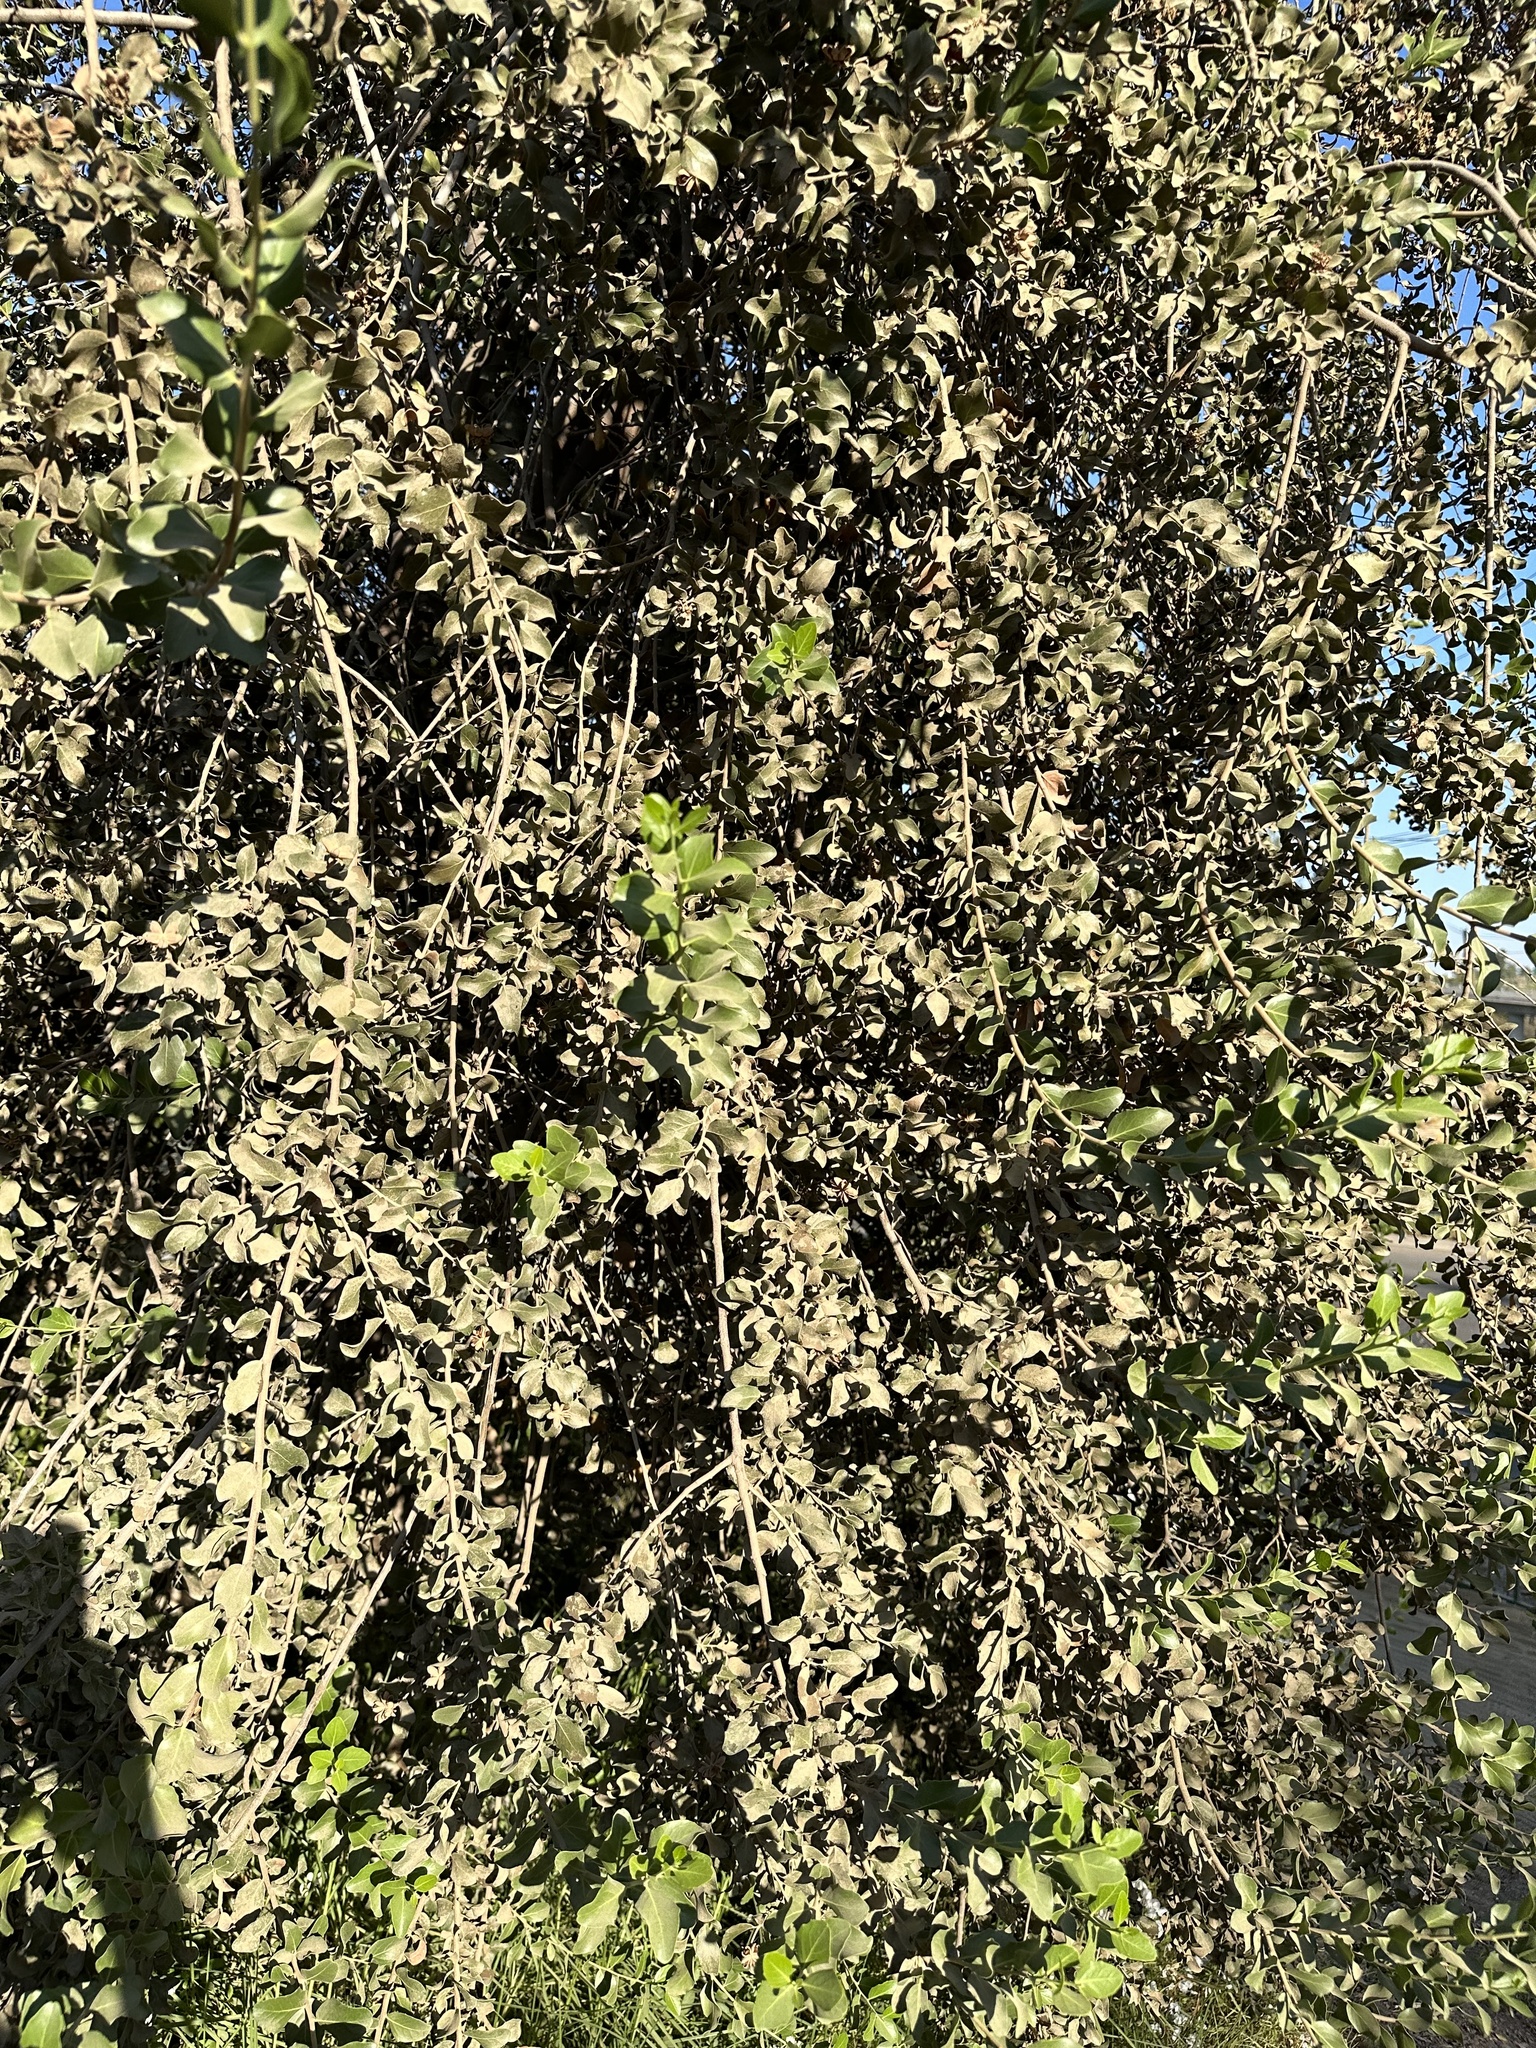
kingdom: Plantae
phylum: Tracheophyta
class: Magnoliopsida
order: Fabales
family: Quillajaceae
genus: Quillaja
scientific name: Quillaja saponaria
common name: Murillo's-bark
